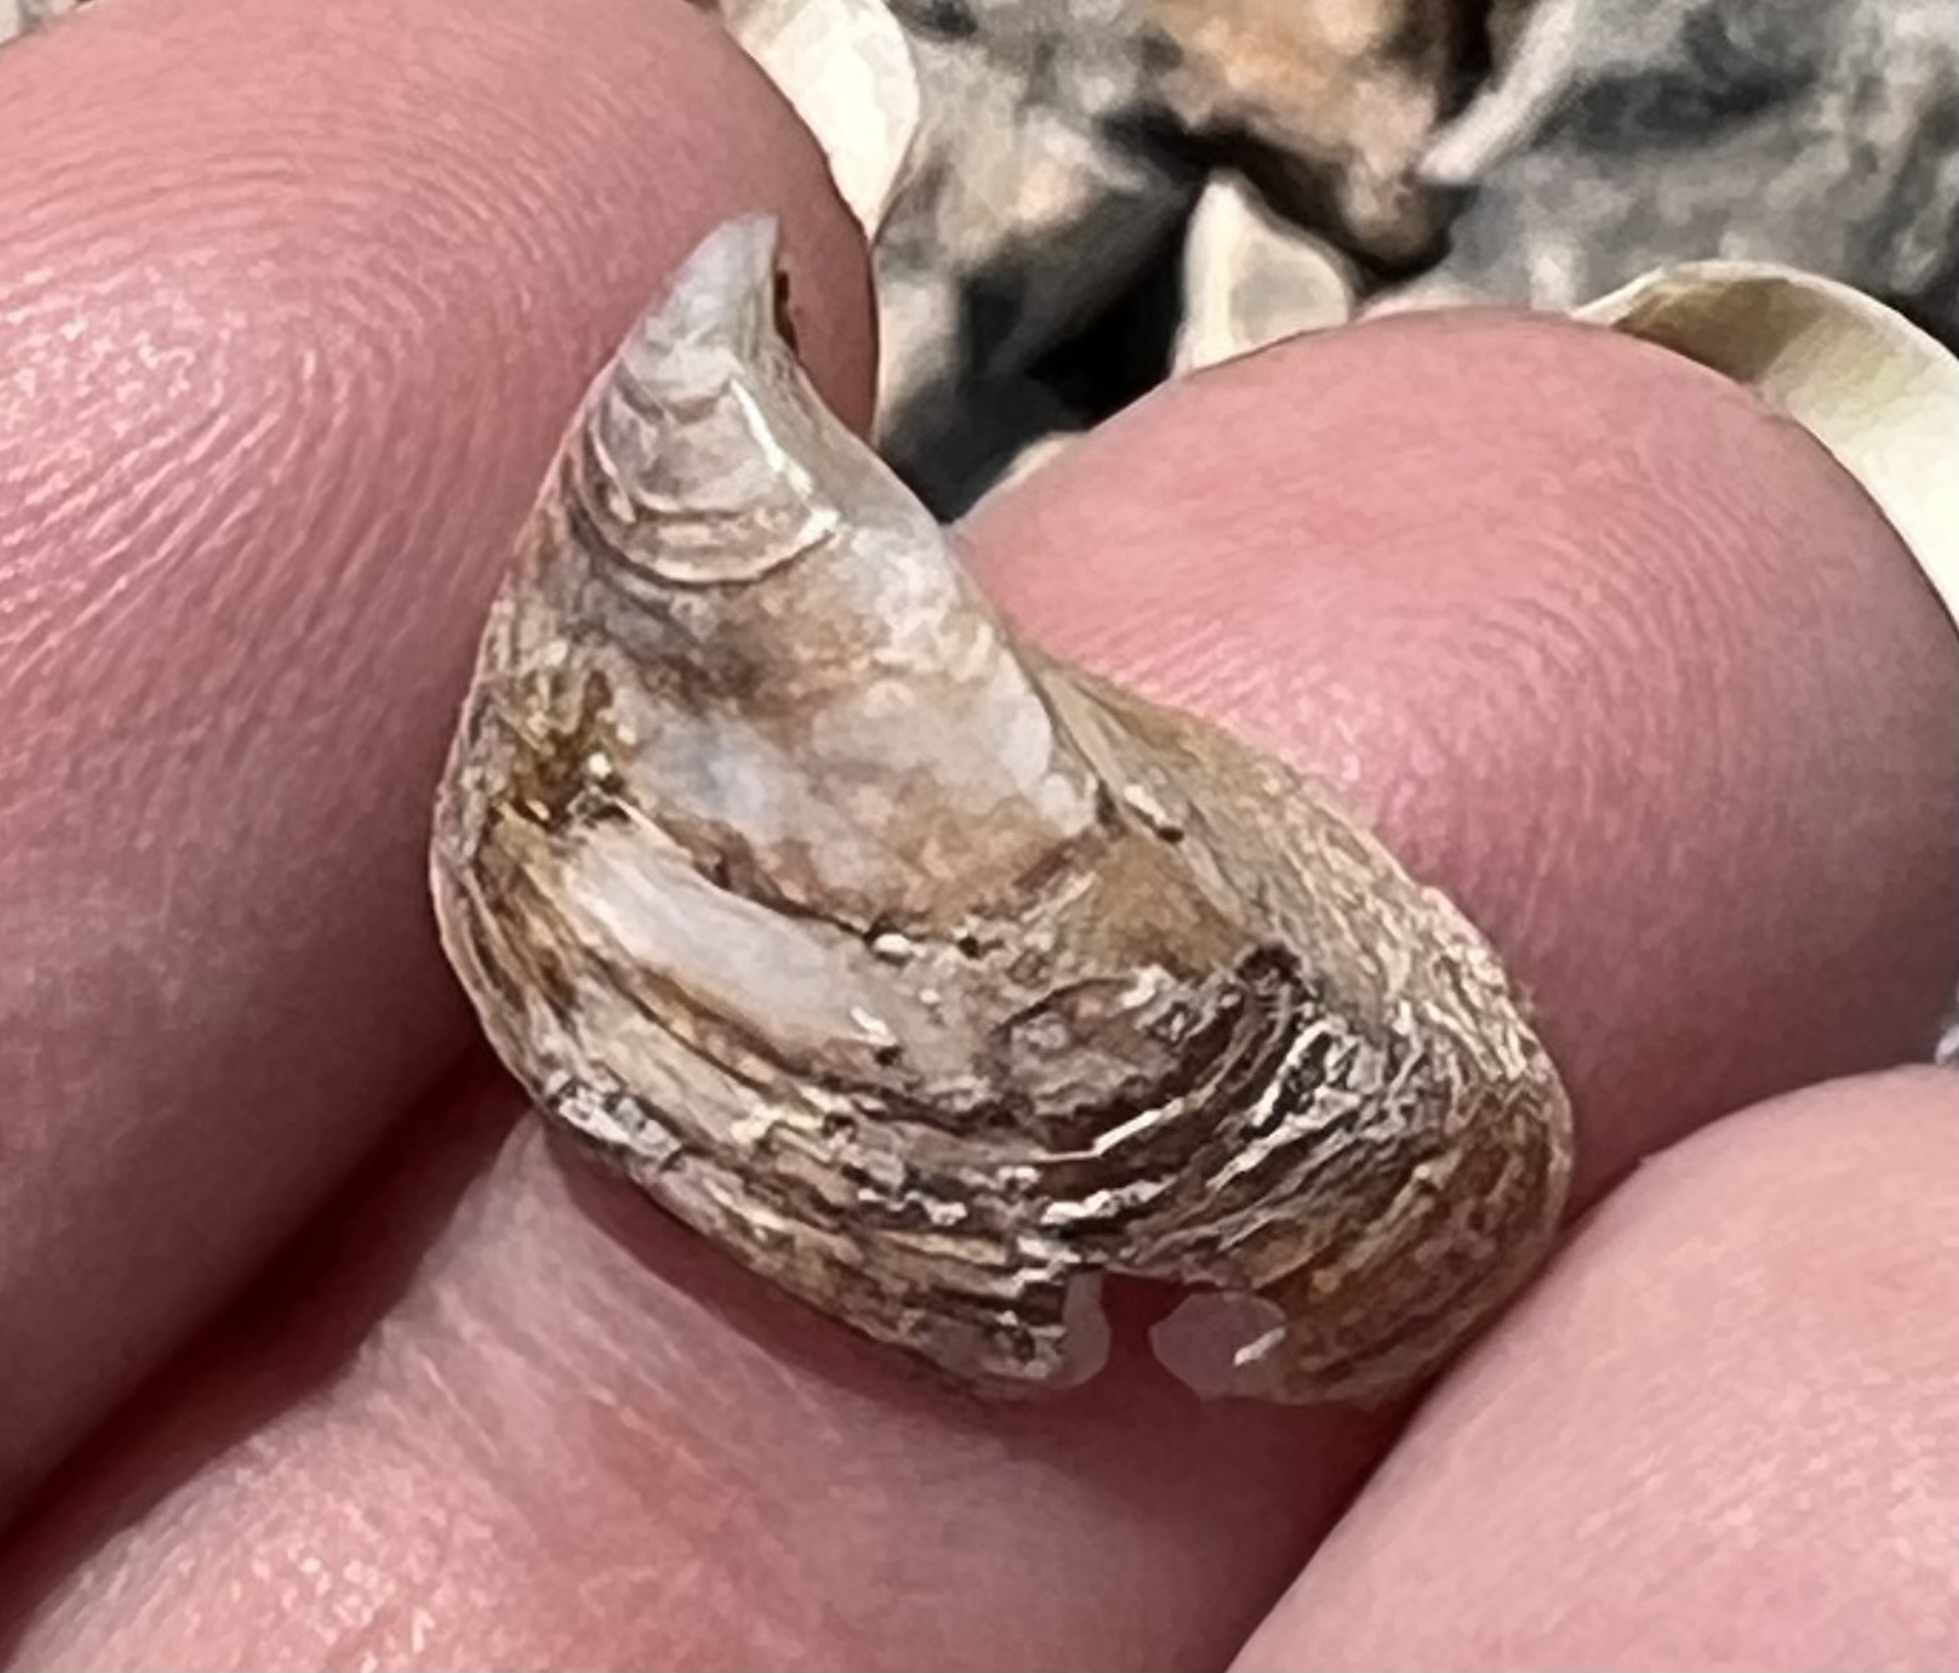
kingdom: Animalia
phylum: Mollusca
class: Bivalvia
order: Myida
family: Dreissenidae
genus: Dreissena
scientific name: Dreissena polymorpha
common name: Zebra mussel
